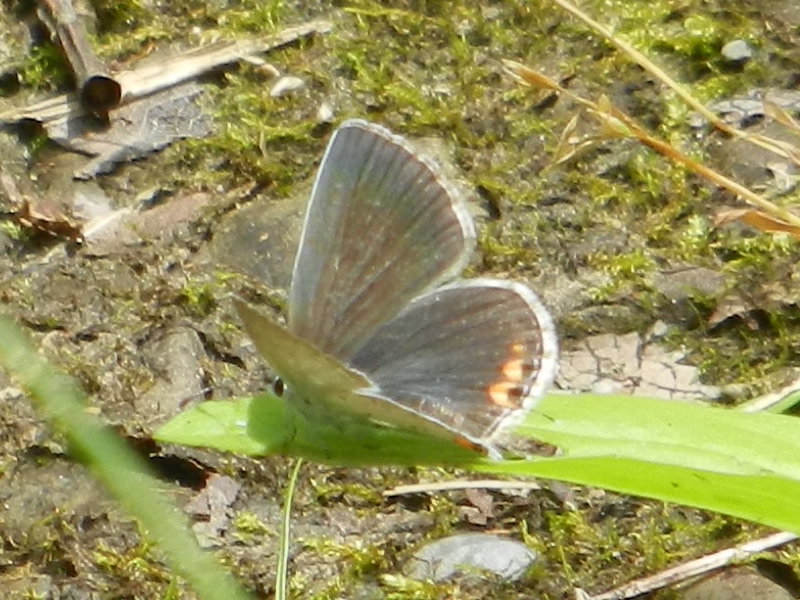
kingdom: Animalia
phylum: Arthropoda
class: Insecta
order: Lepidoptera
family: Lycaenidae
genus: Elkalyce
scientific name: Elkalyce comyntas
